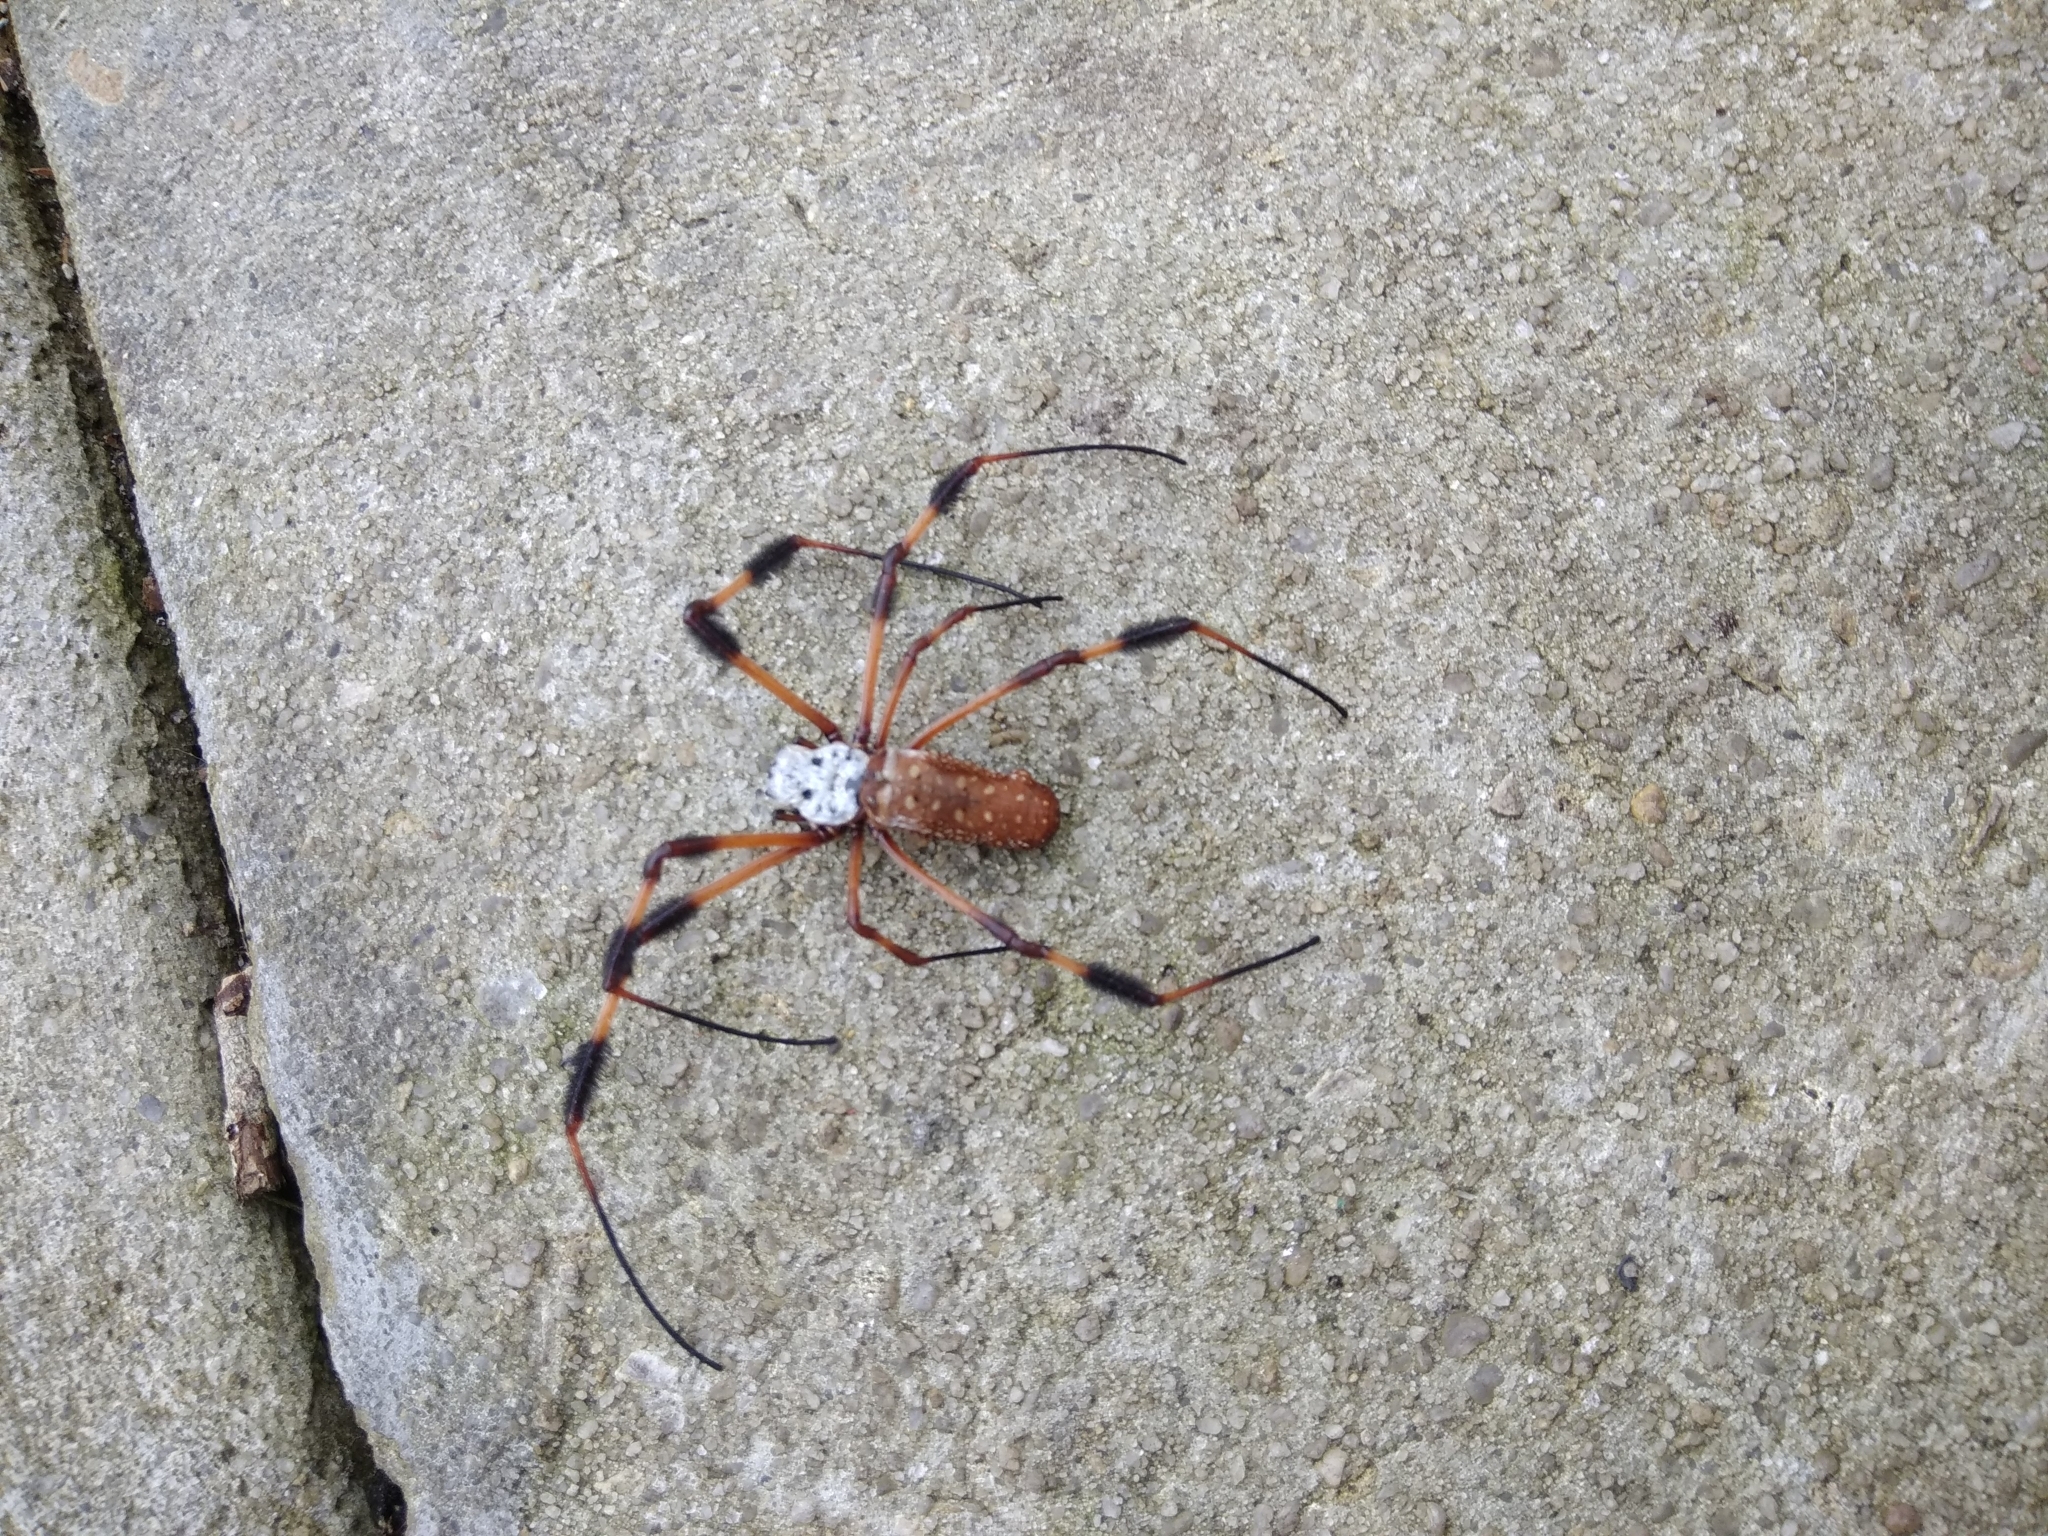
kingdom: Animalia
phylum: Arthropoda
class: Arachnida
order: Araneae
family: Araneidae
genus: Trichonephila
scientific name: Trichonephila clavipes
